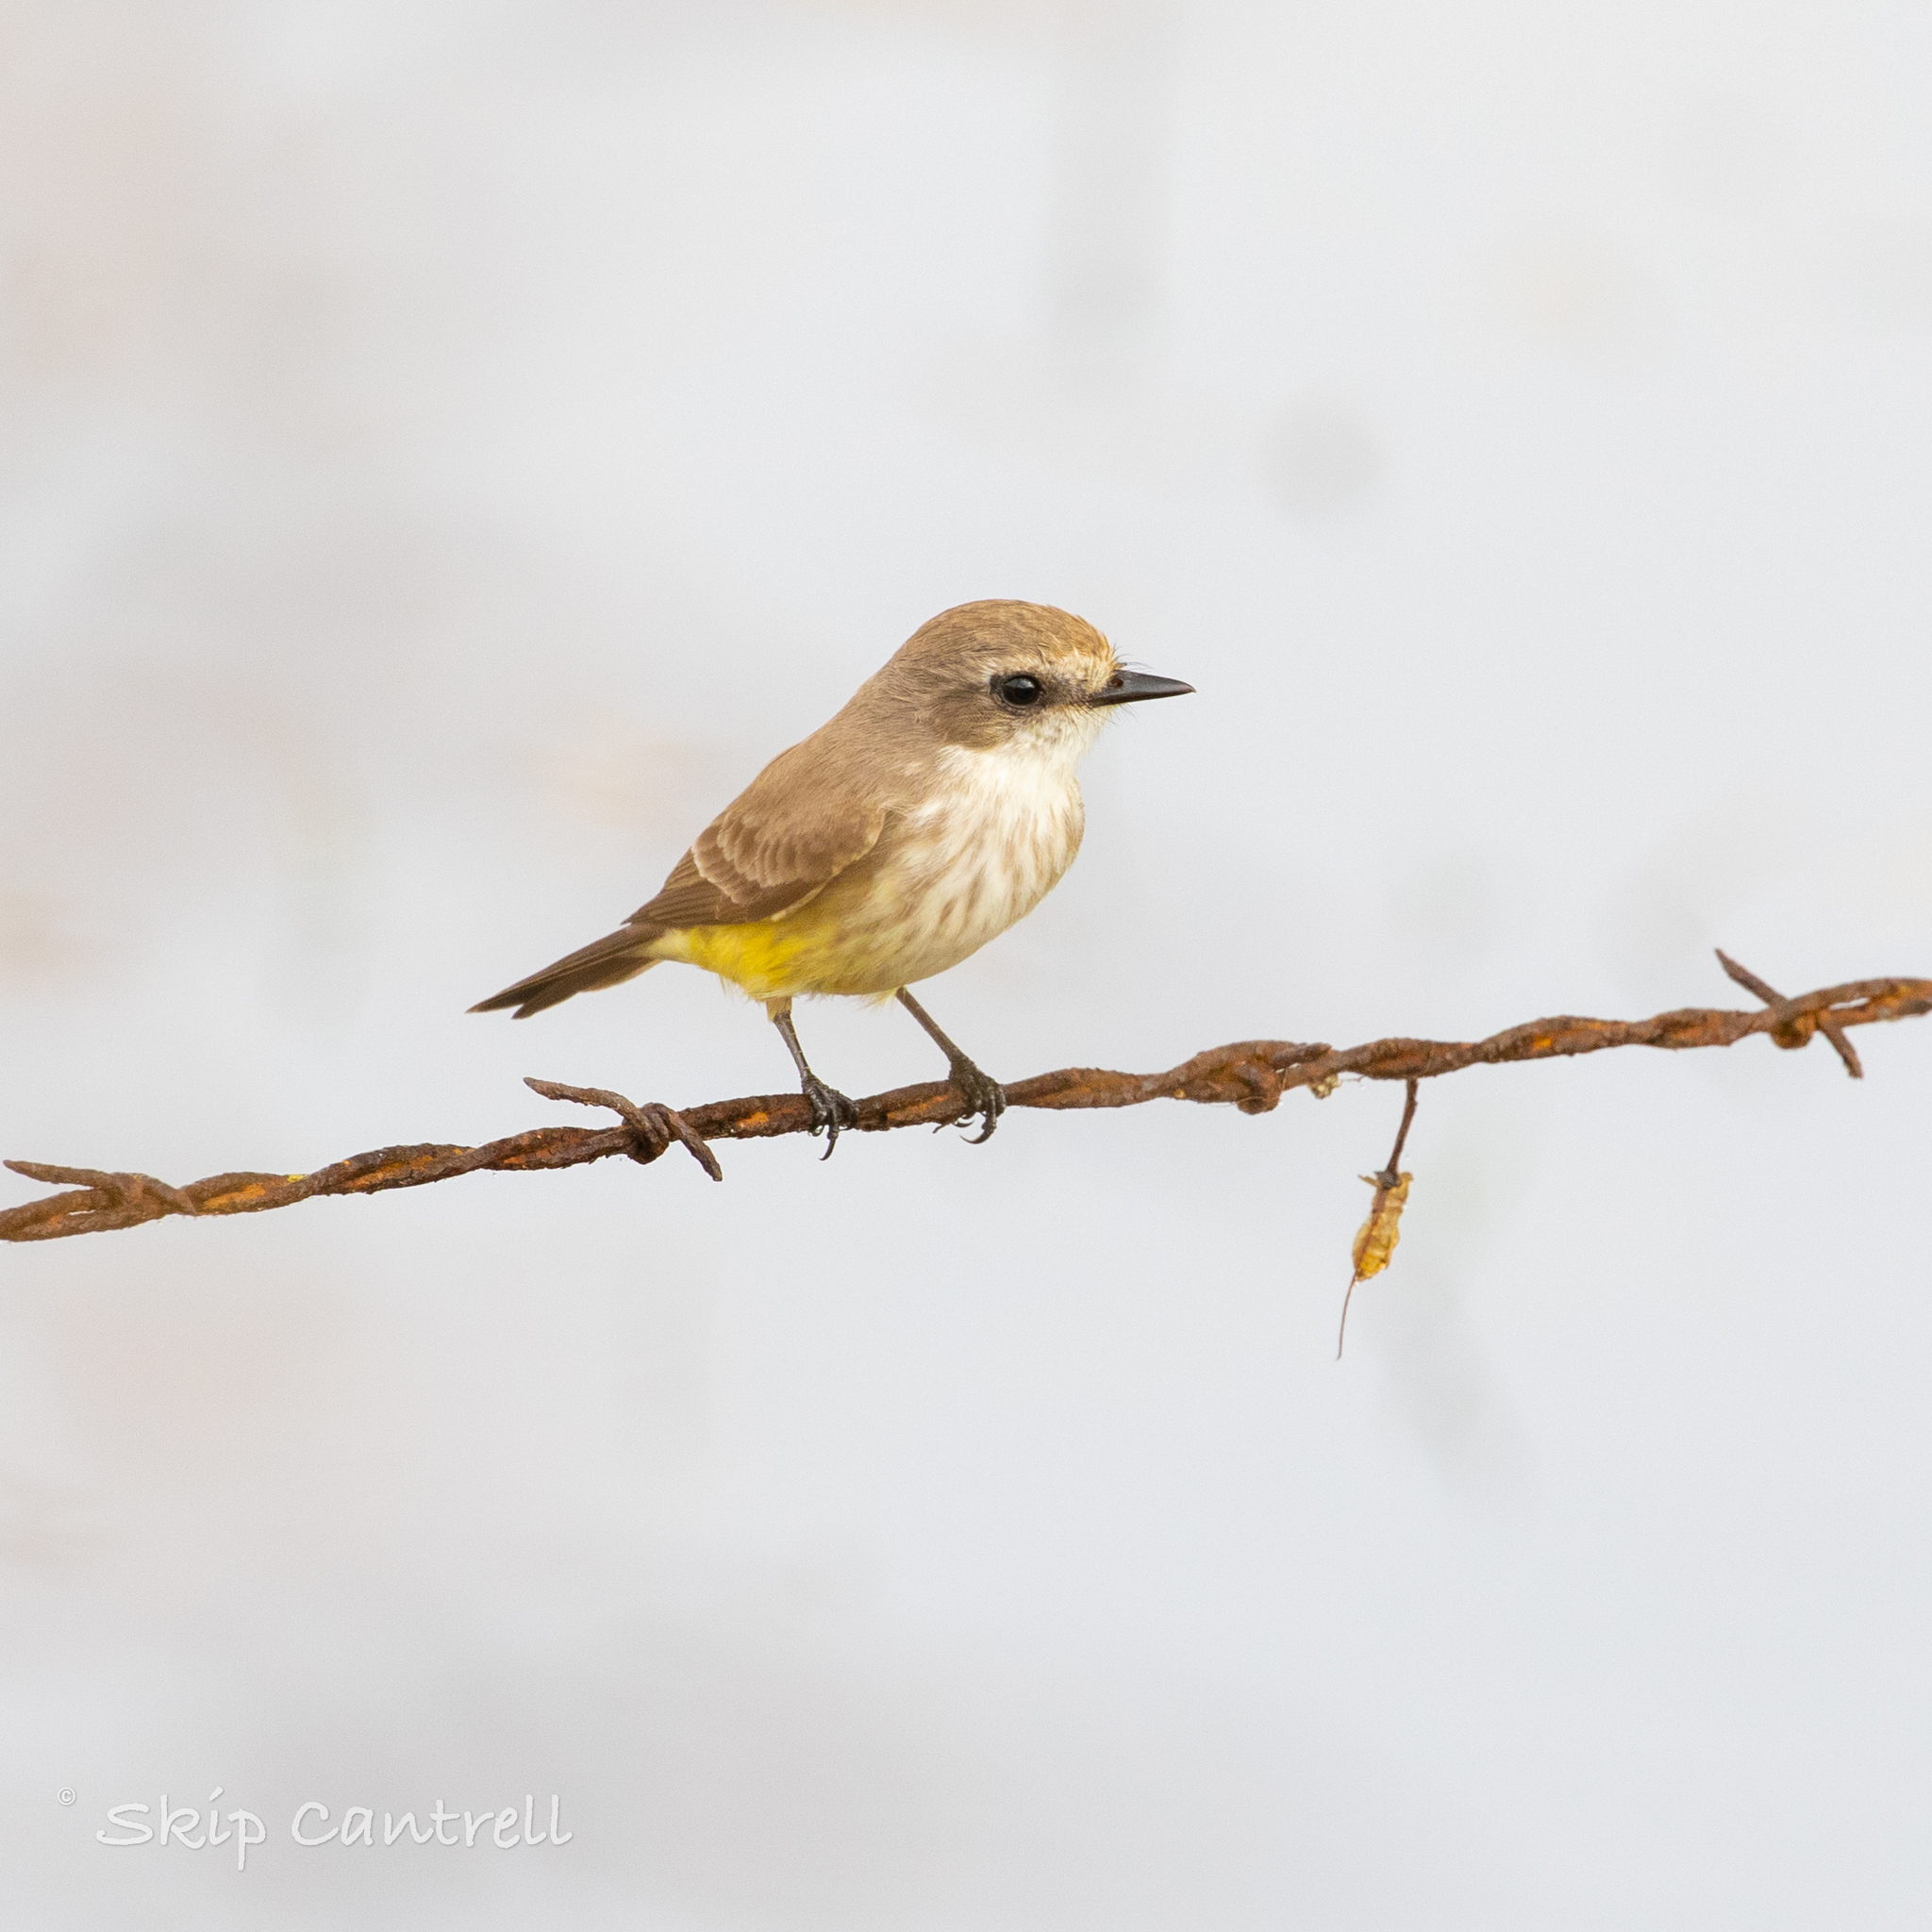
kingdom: Animalia
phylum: Chordata
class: Aves
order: Passeriformes
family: Tyrannidae
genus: Pyrocephalus
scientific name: Pyrocephalus rubinus
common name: Vermilion flycatcher
